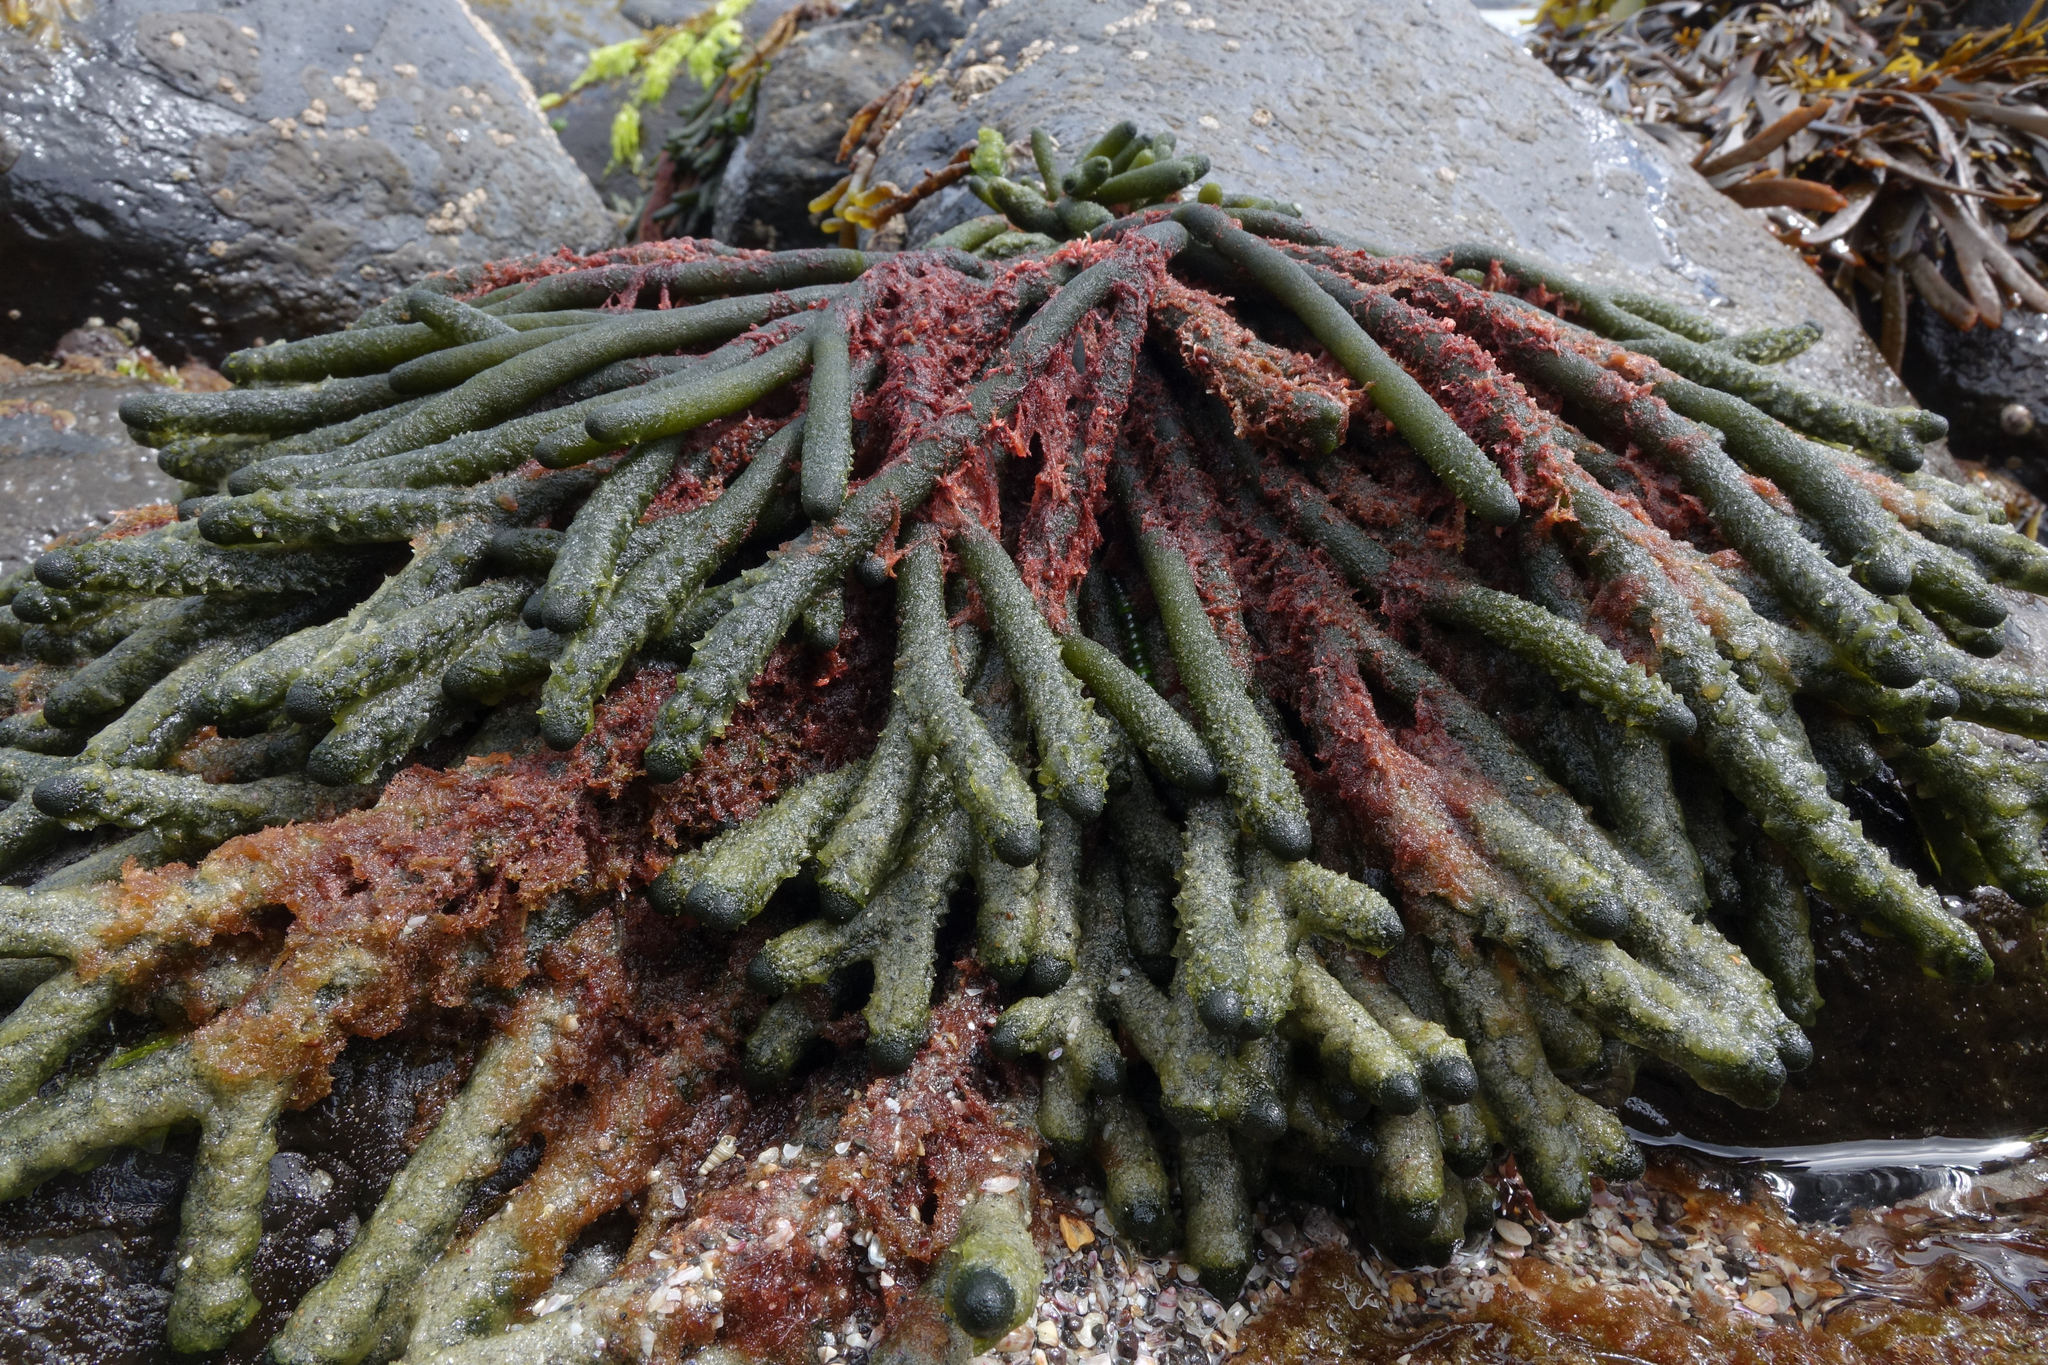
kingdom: Plantae
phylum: Chlorophyta
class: Ulvophyceae
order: Bryopsidales
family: Codiaceae
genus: Codium
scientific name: Codium fragile
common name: Dead man's fingers
